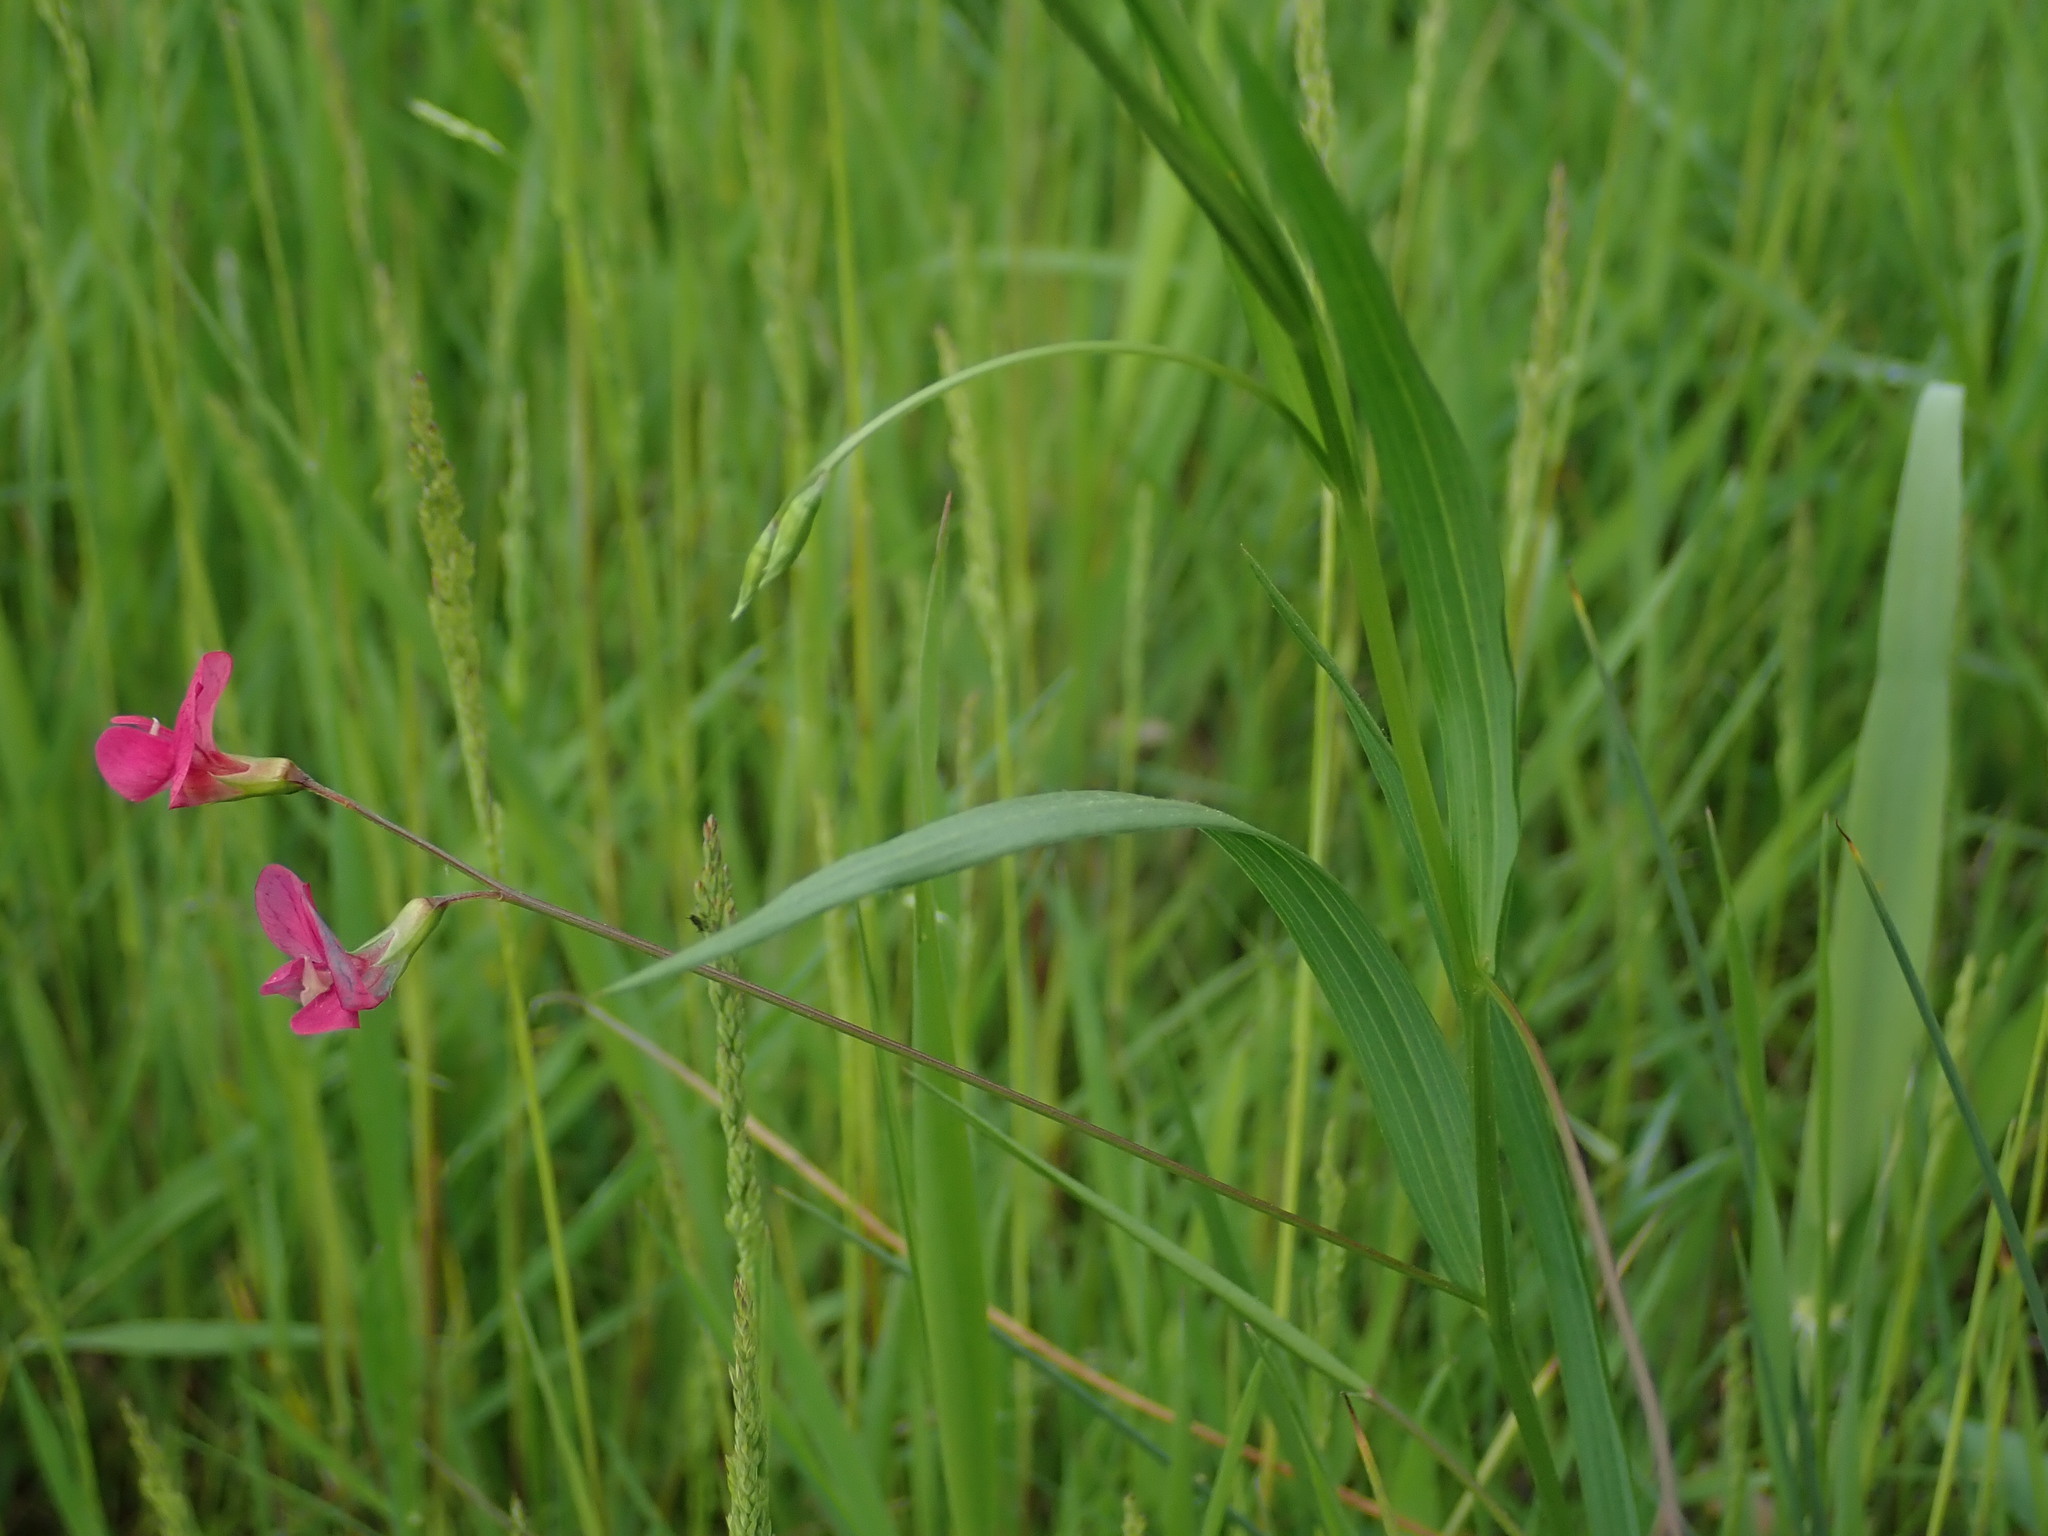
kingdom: Plantae
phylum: Tracheophyta
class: Magnoliopsida
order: Fabales
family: Fabaceae
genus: Lathyrus
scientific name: Lathyrus nissolia
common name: Grass vetchling
